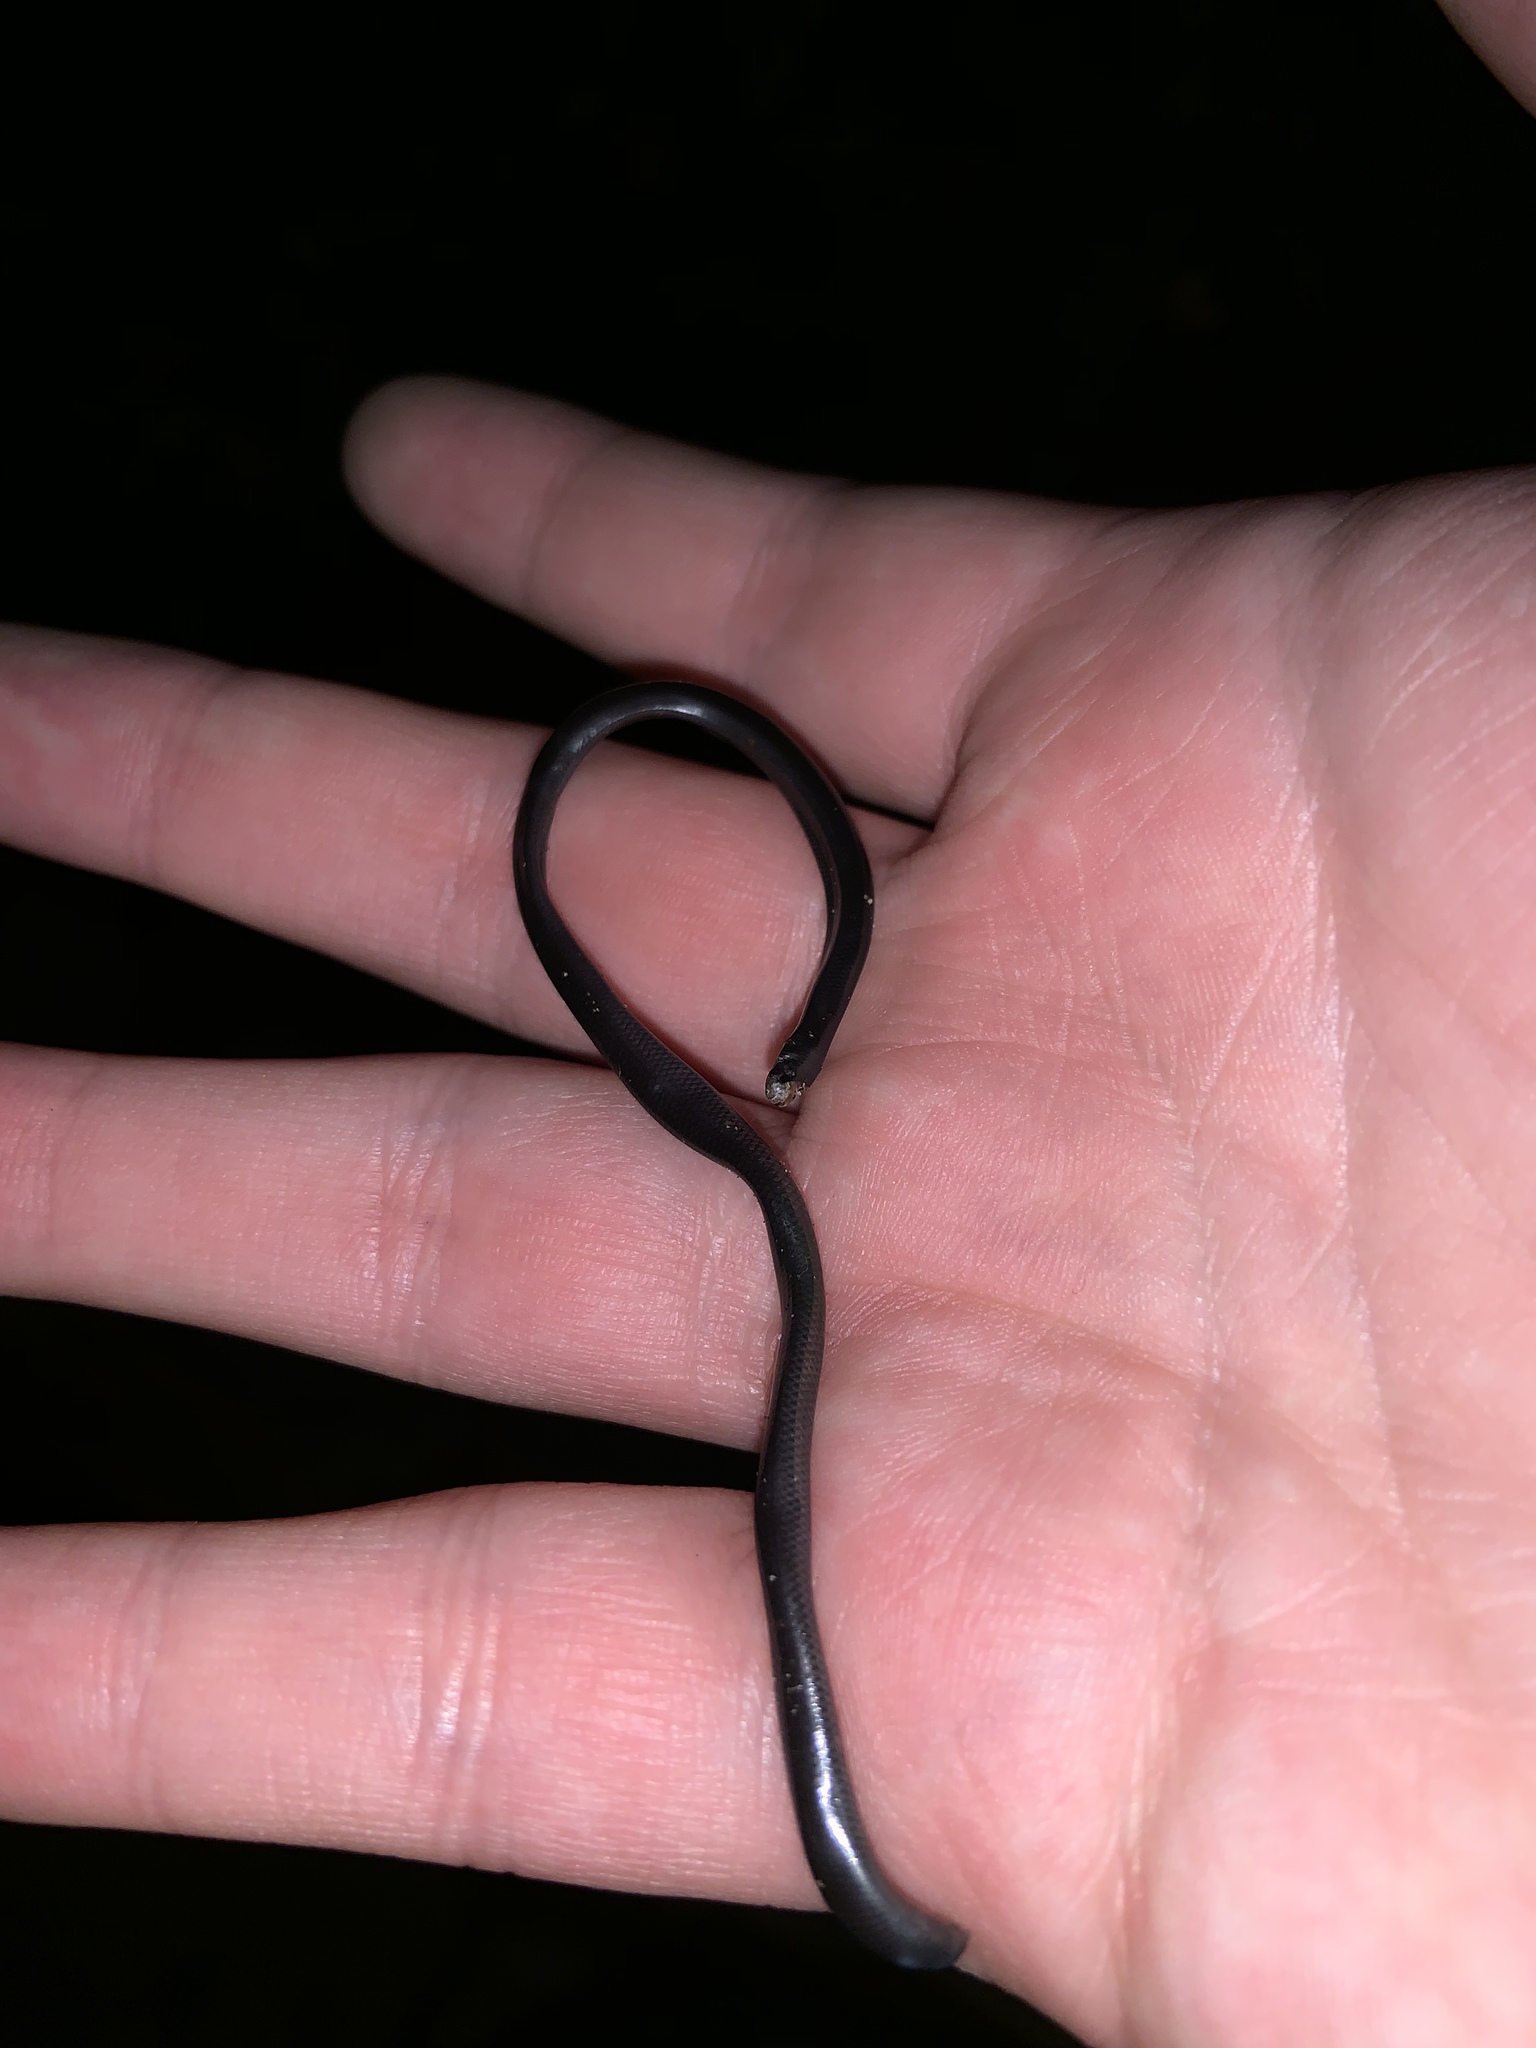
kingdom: Animalia
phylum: Chordata
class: Squamata
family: Typhlopidae
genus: Indotyphlops
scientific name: Indotyphlops braminus
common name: Brahminy blindsnake
